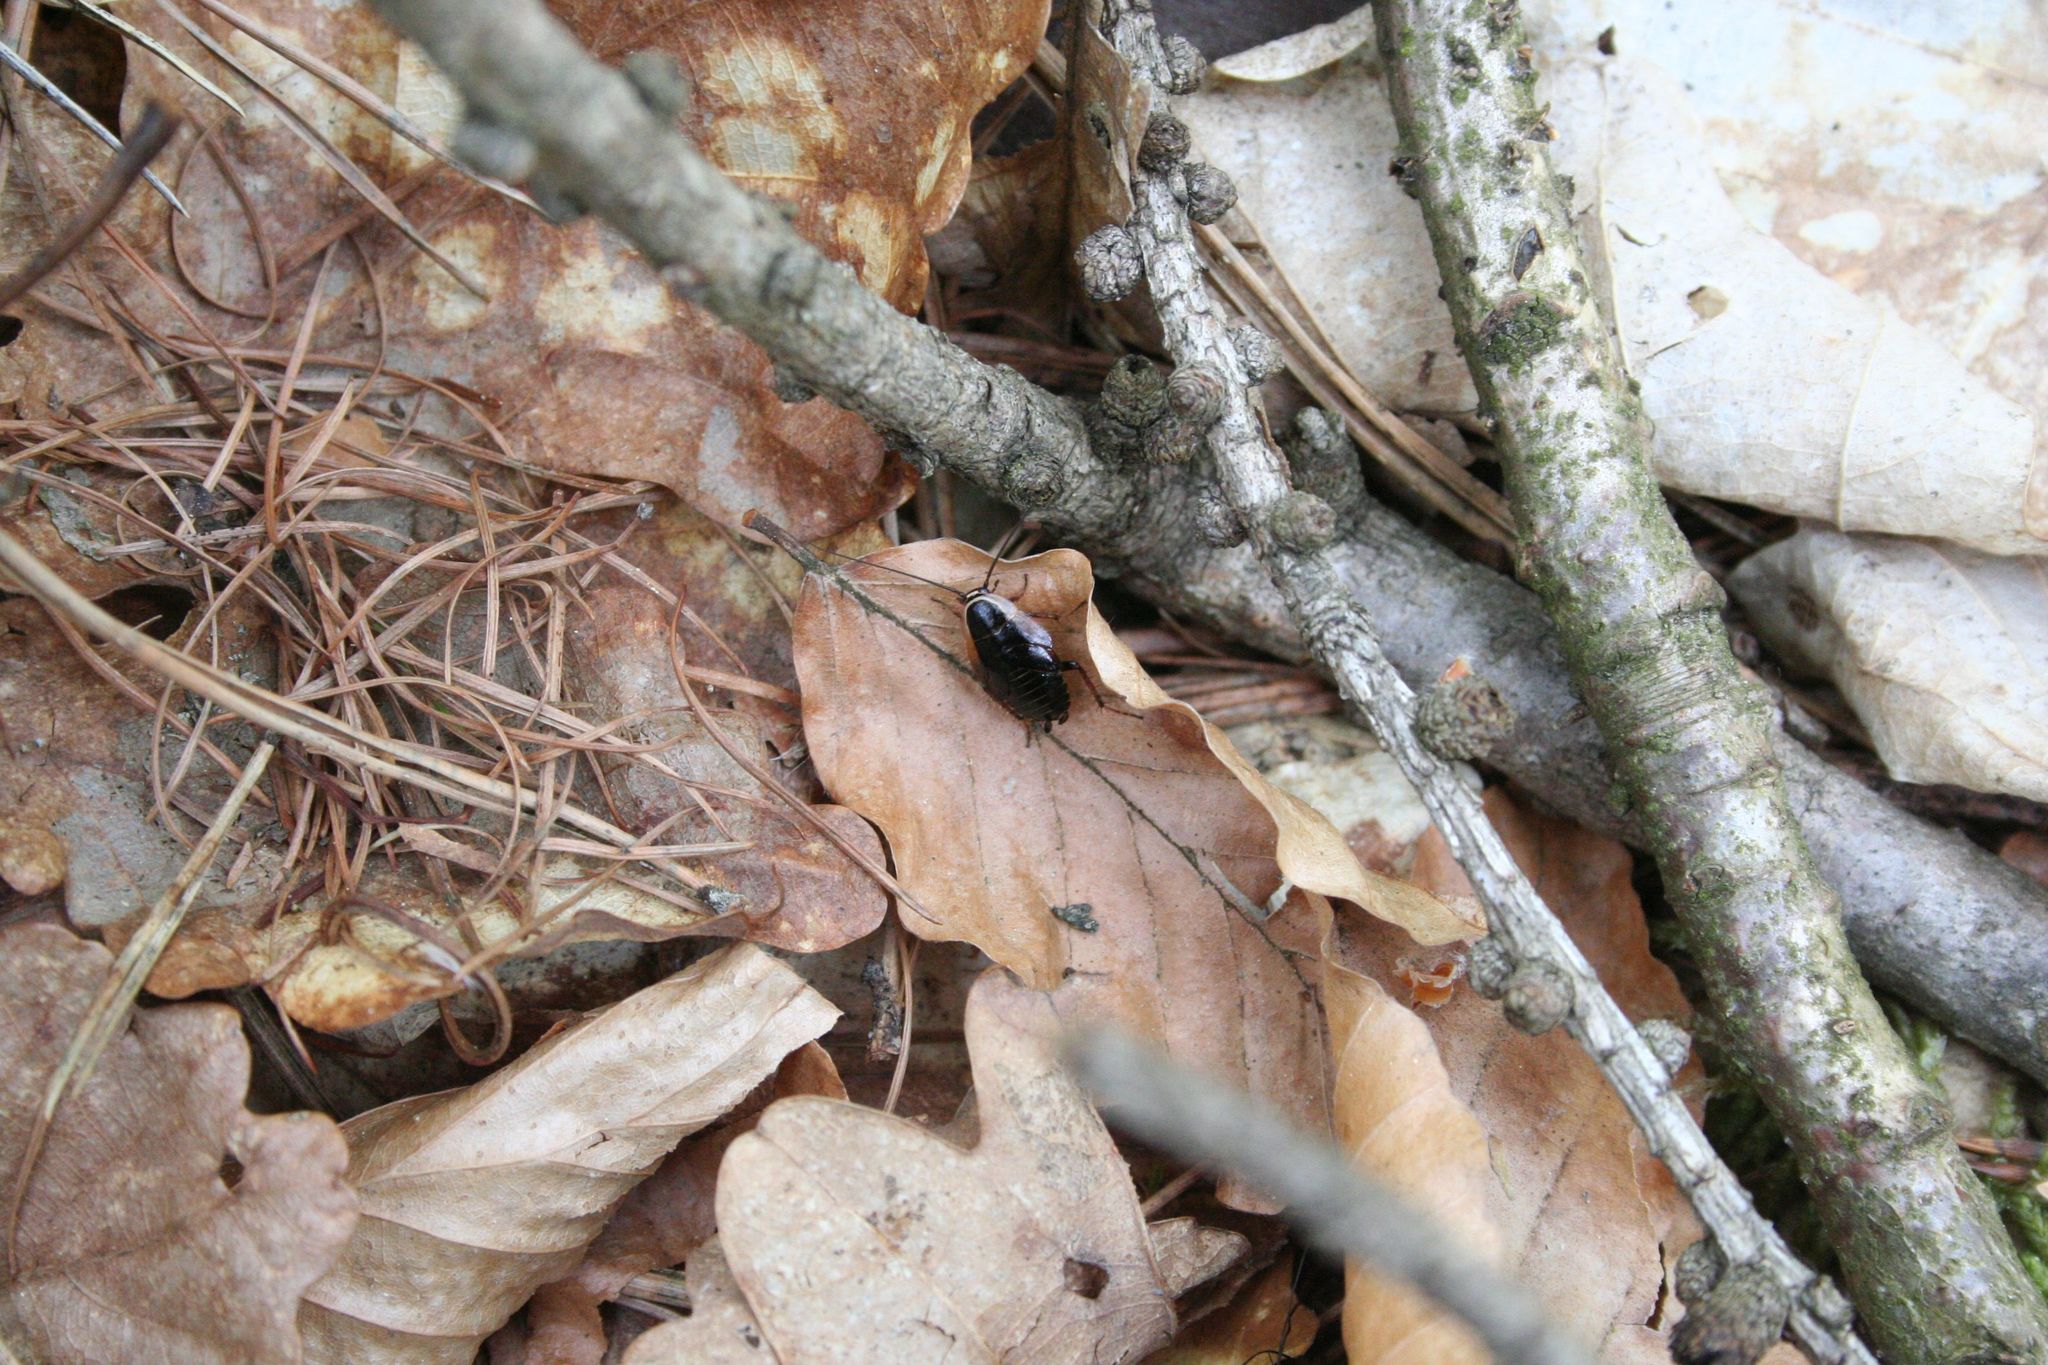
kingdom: Animalia
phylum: Arthropoda
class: Insecta
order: Blattodea
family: Ectobiidae
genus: Ectobius
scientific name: Ectobius sylvestris
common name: Forest cockroach
